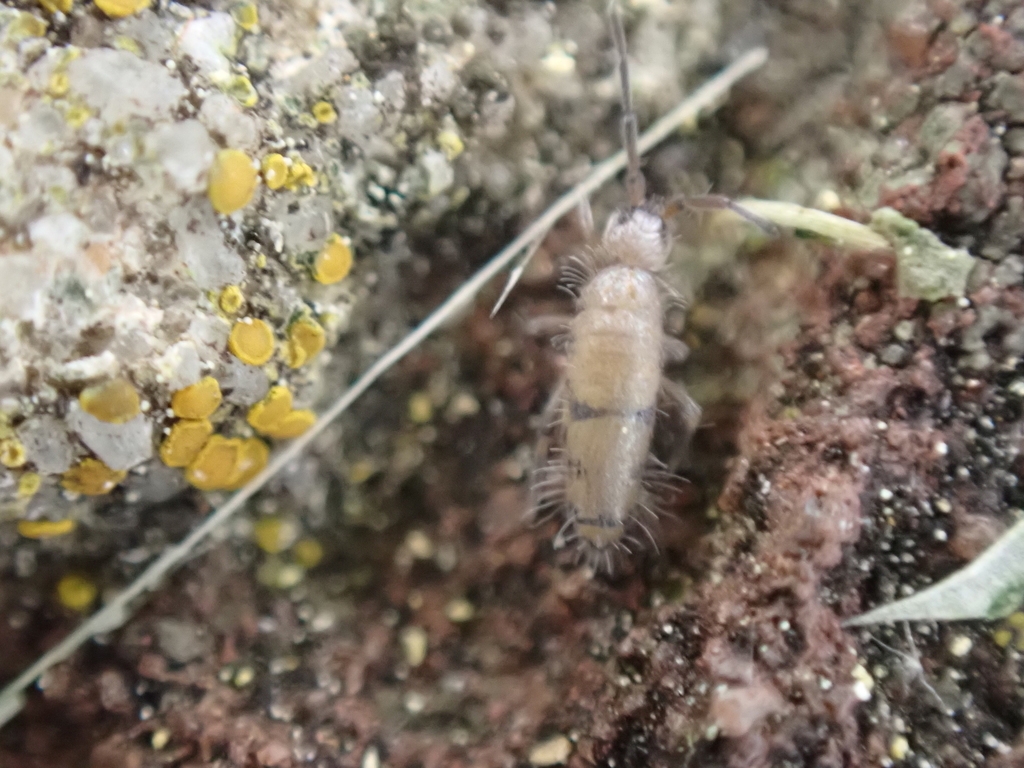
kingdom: Animalia
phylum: Arthropoda
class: Collembola
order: Entomobryomorpha
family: Entomobryidae
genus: Willowsia
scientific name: Willowsia nigromaculata
